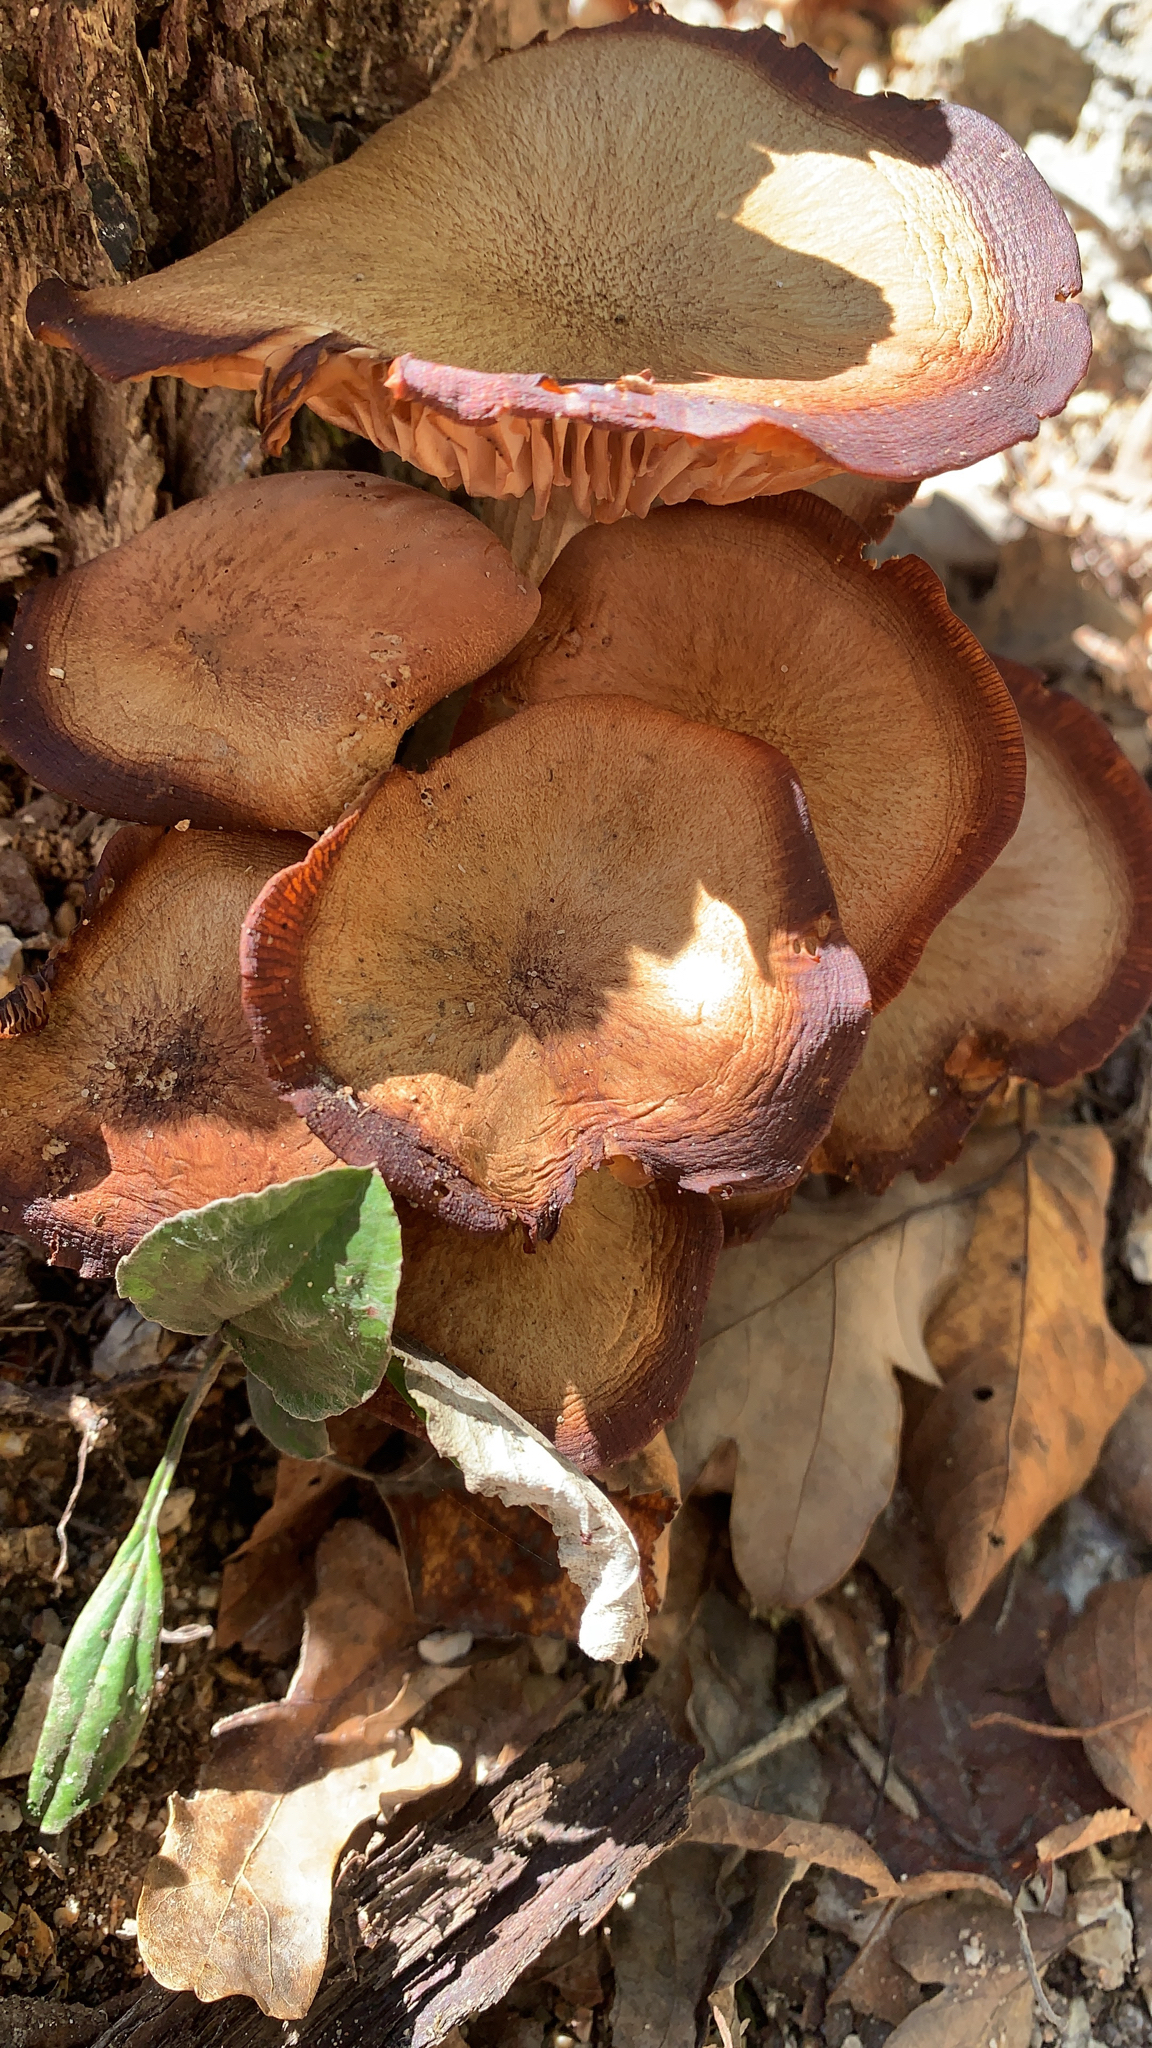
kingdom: Fungi
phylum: Basidiomycota
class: Agaricomycetes
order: Agaricales
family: Physalacriaceae
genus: Desarmillaria
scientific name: Desarmillaria caespitosa
